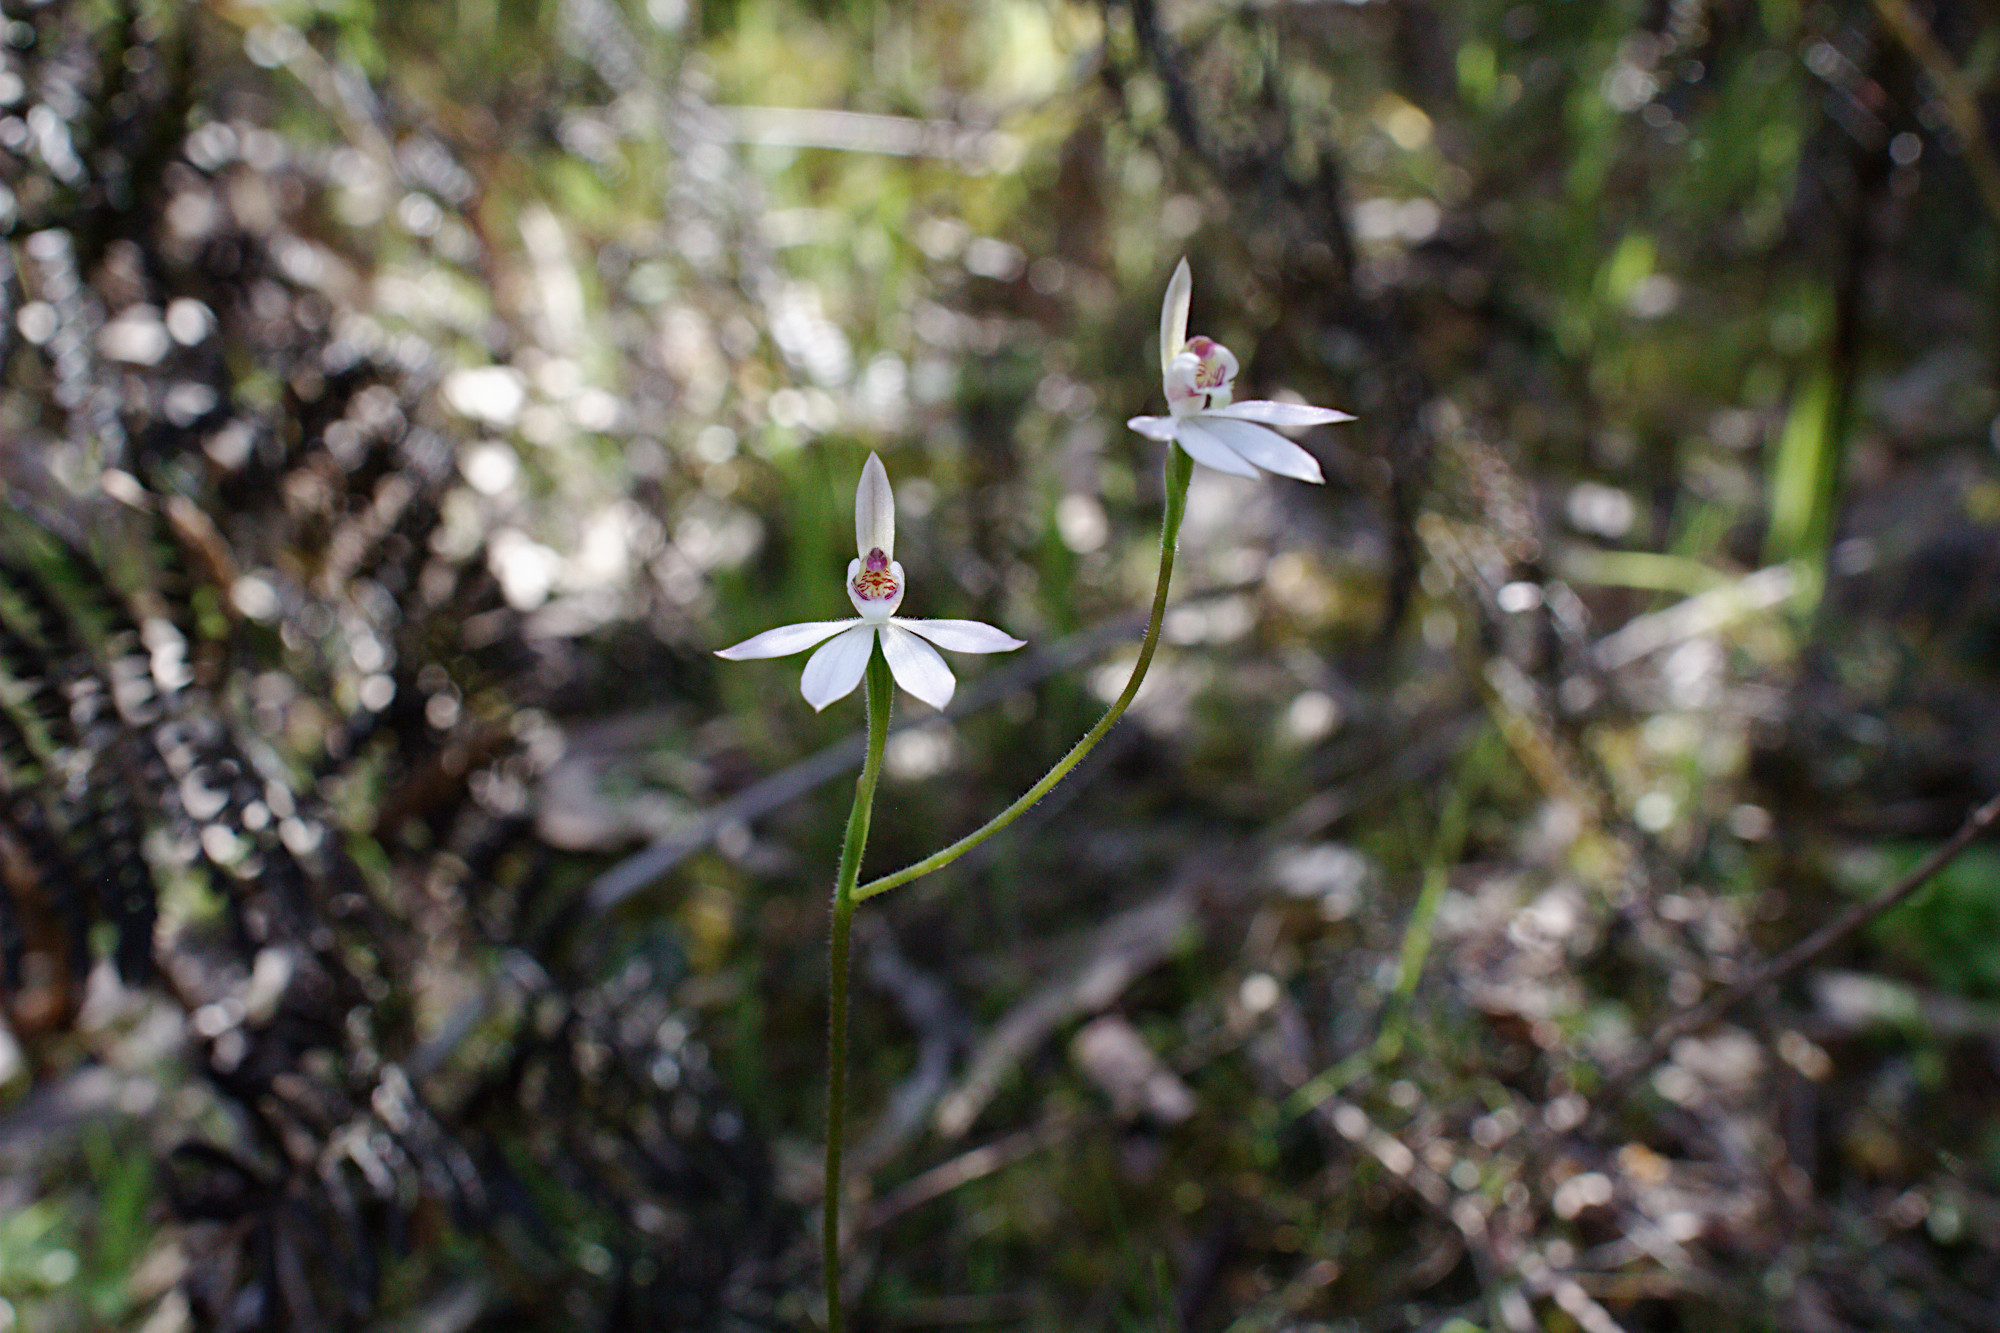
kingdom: Plantae
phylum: Tracheophyta
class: Liliopsida
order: Asparagales
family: Orchidaceae
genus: Caladenia
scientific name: Caladenia carnea
